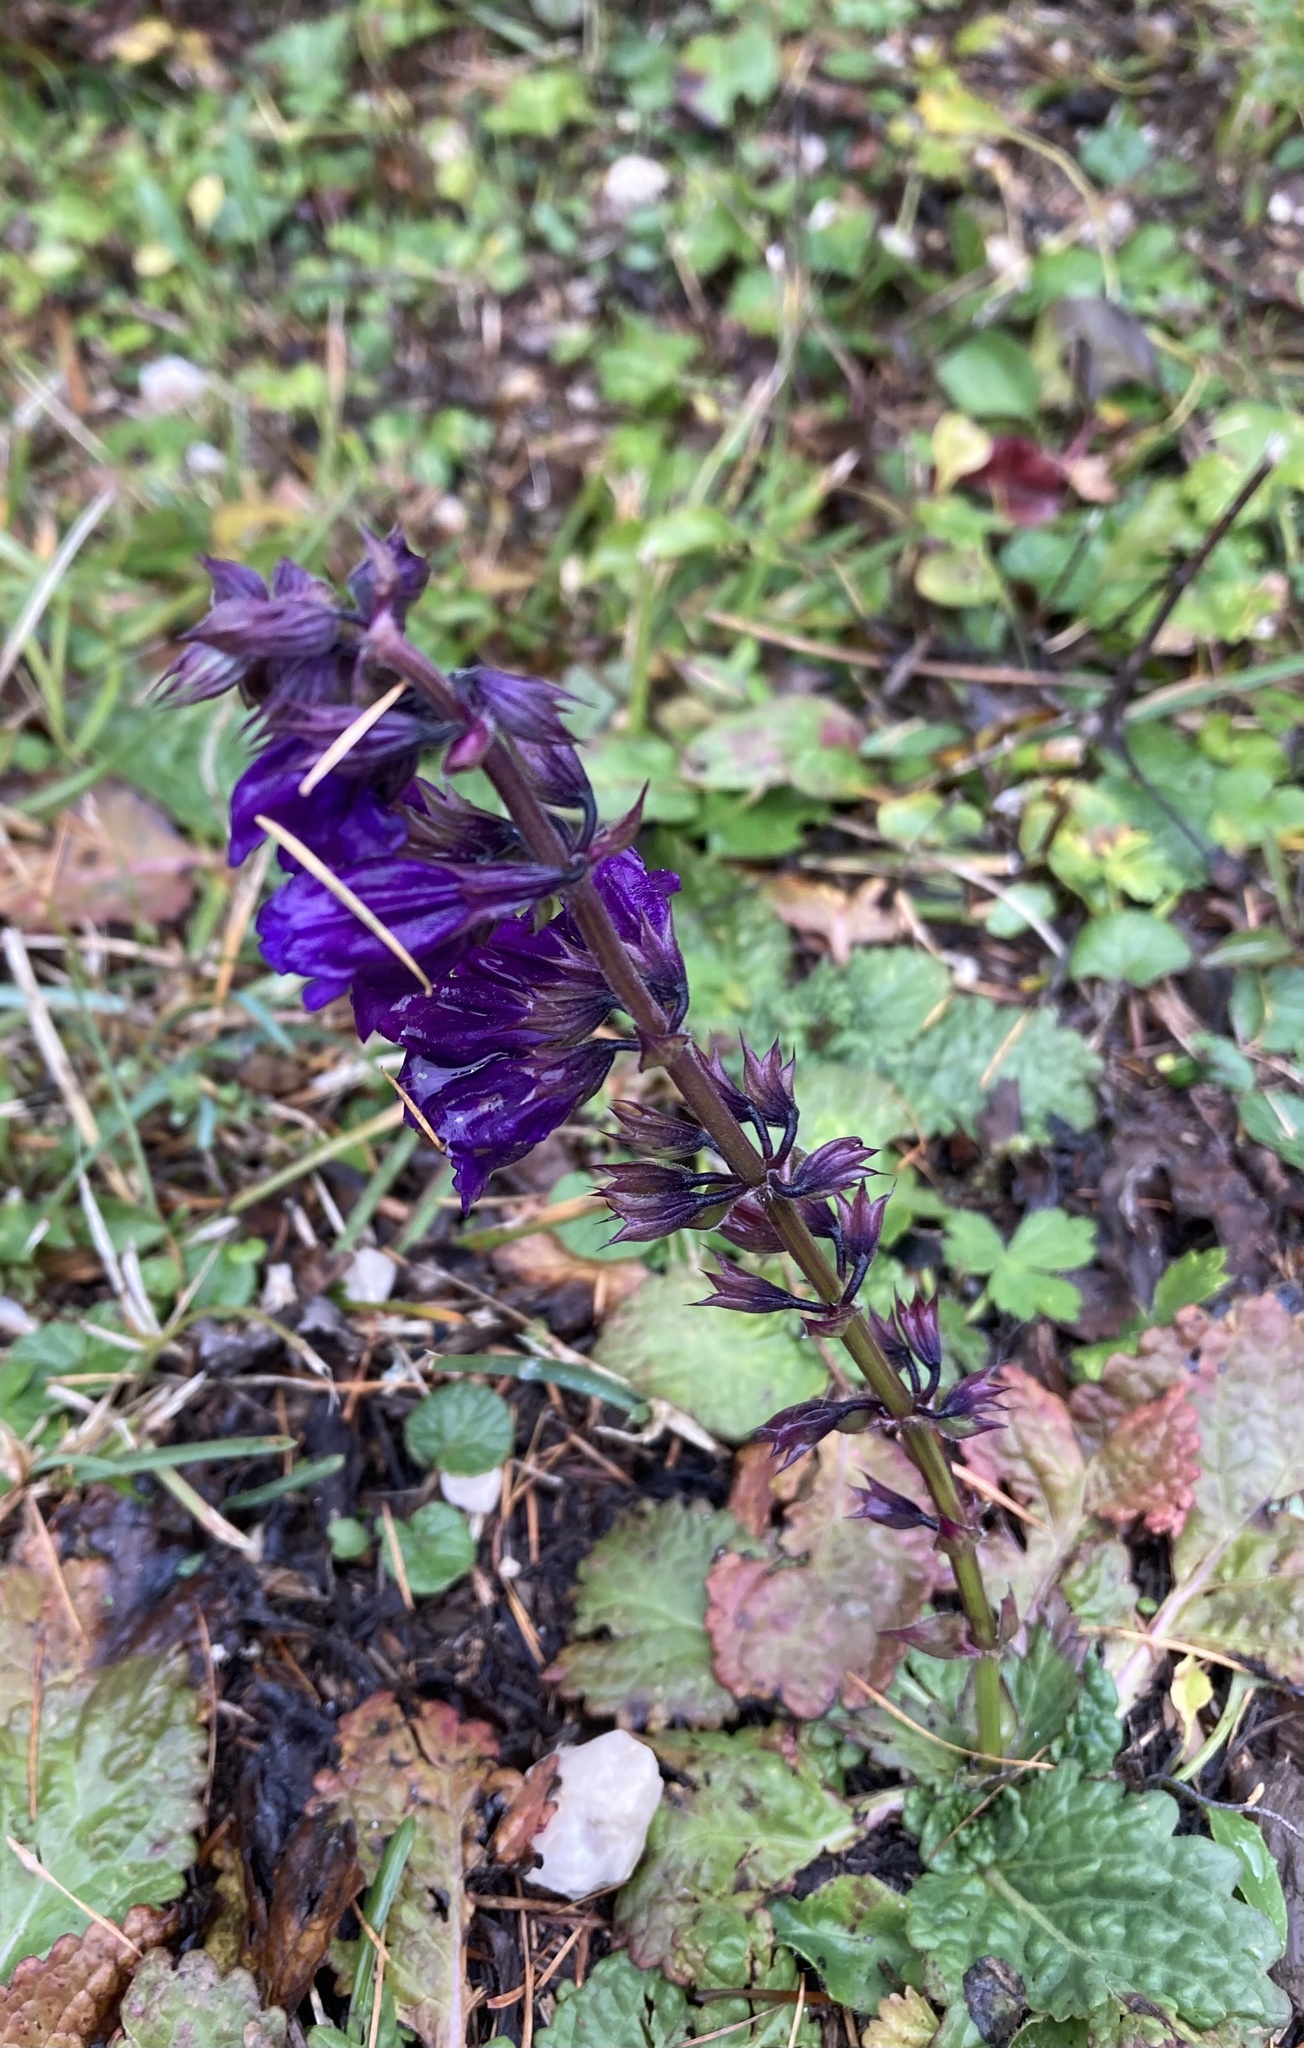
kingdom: Plantae
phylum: Tracheophyta
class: Magnoliopsida
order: Lamiales
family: Lamiaceae
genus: Horminum
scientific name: Horminum pyrenaicum
